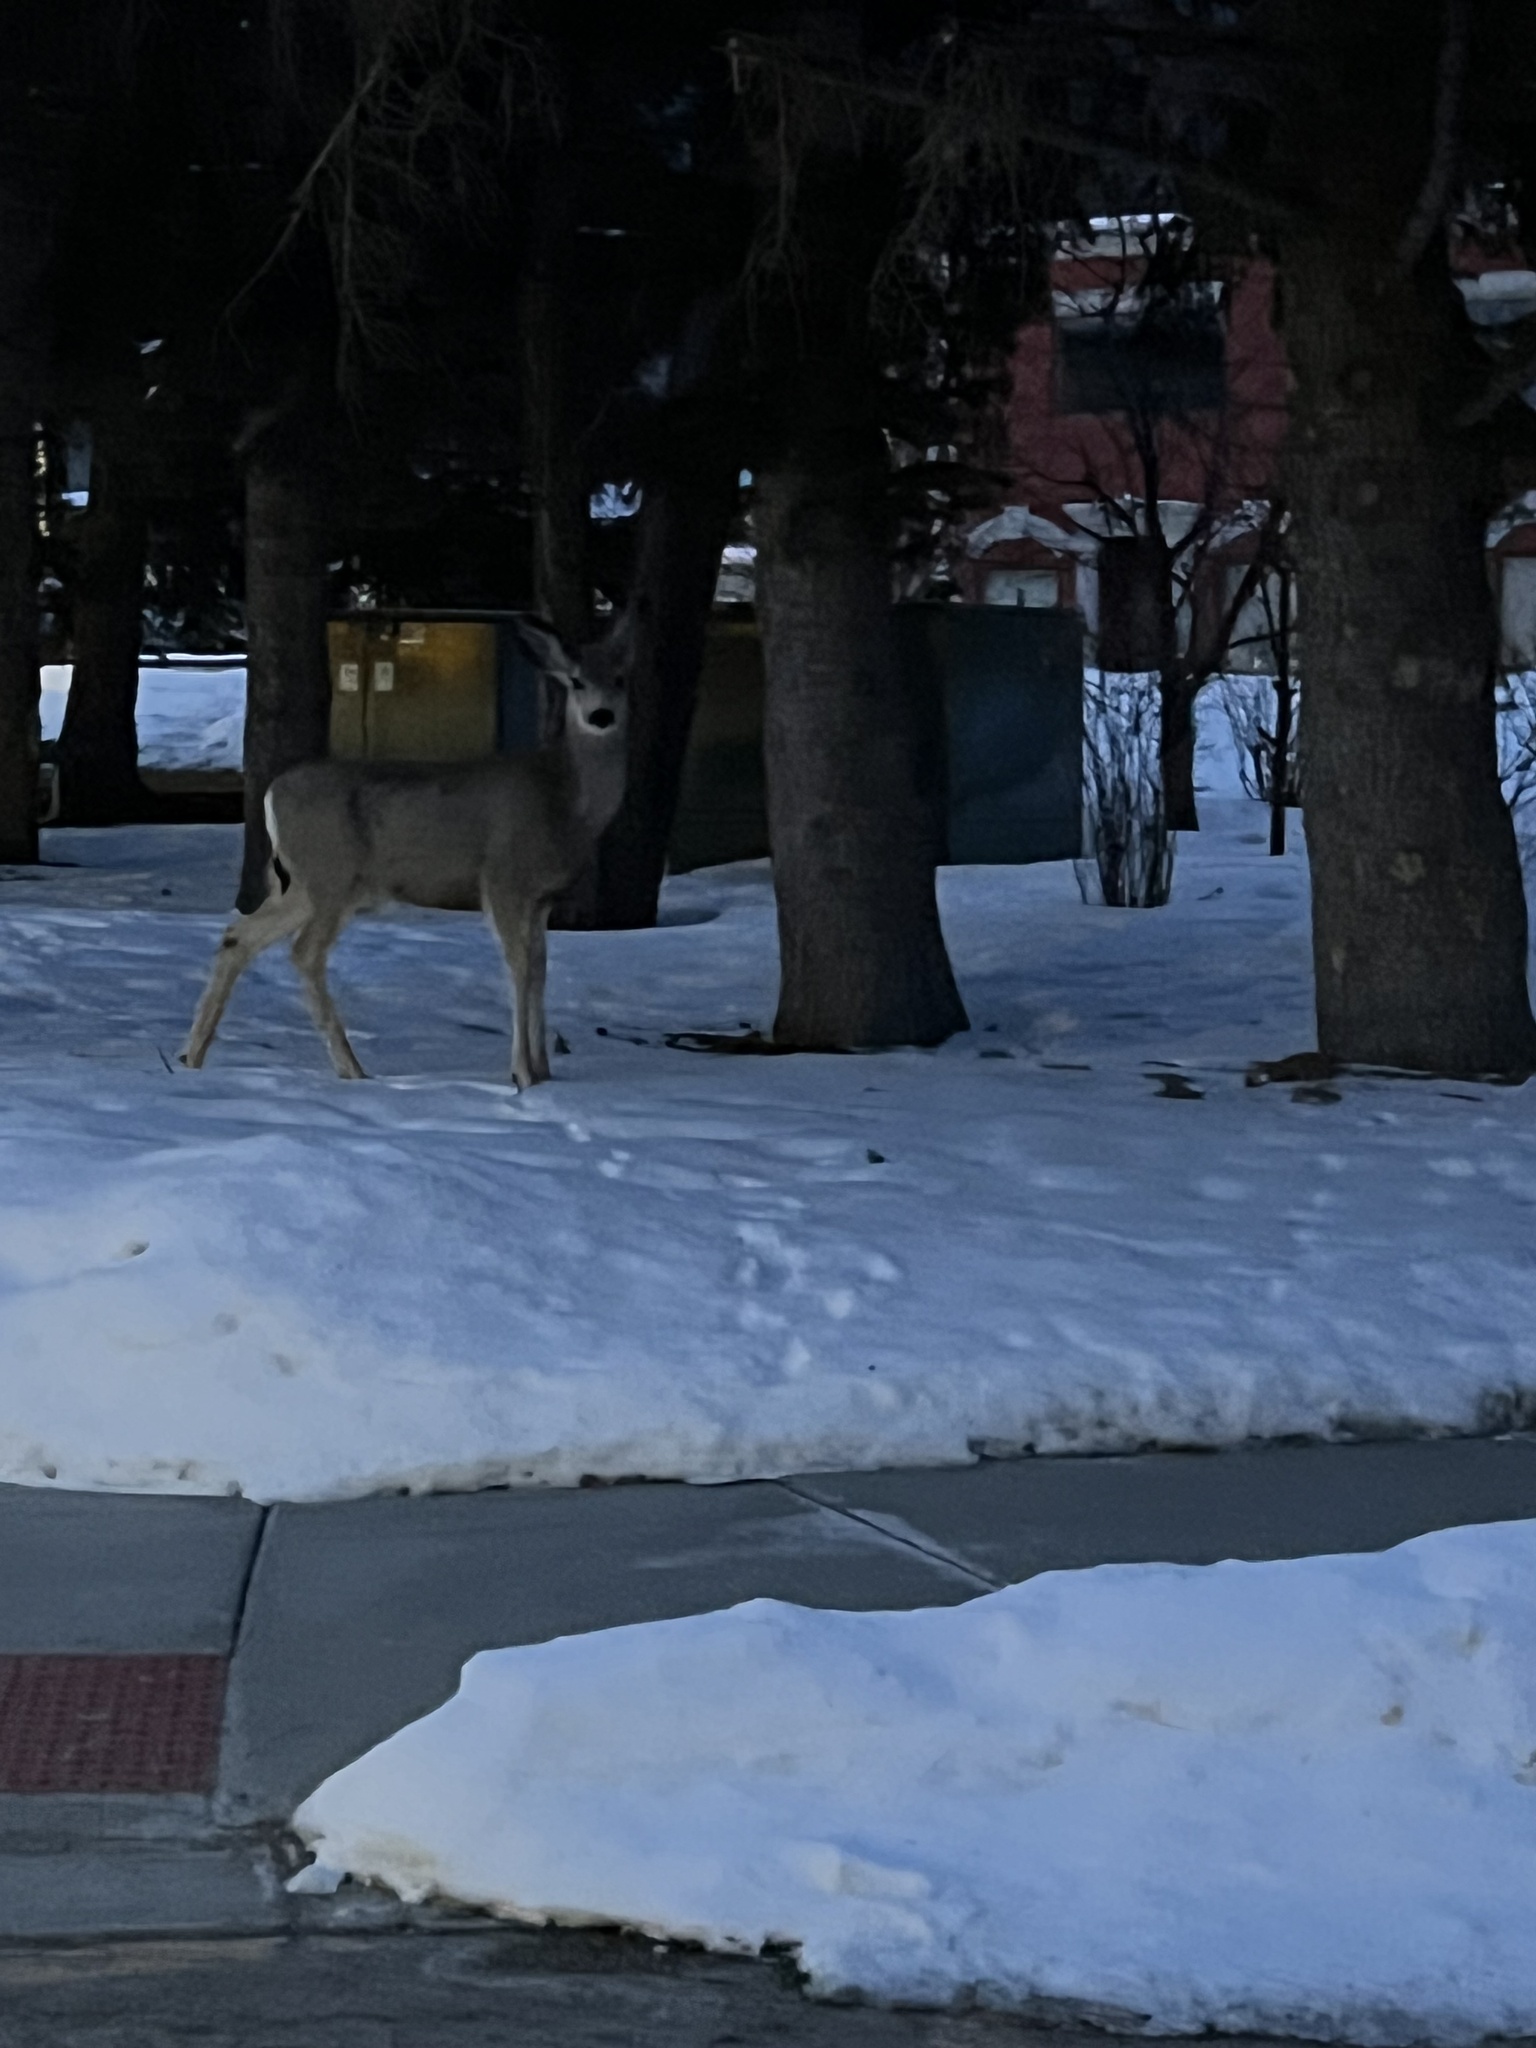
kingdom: Animalia
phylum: Chordata
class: Mammalia
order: Artiodactyla
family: Cervidae
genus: Odocoileus
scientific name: Odocoileus hemionus
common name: Mule deer
